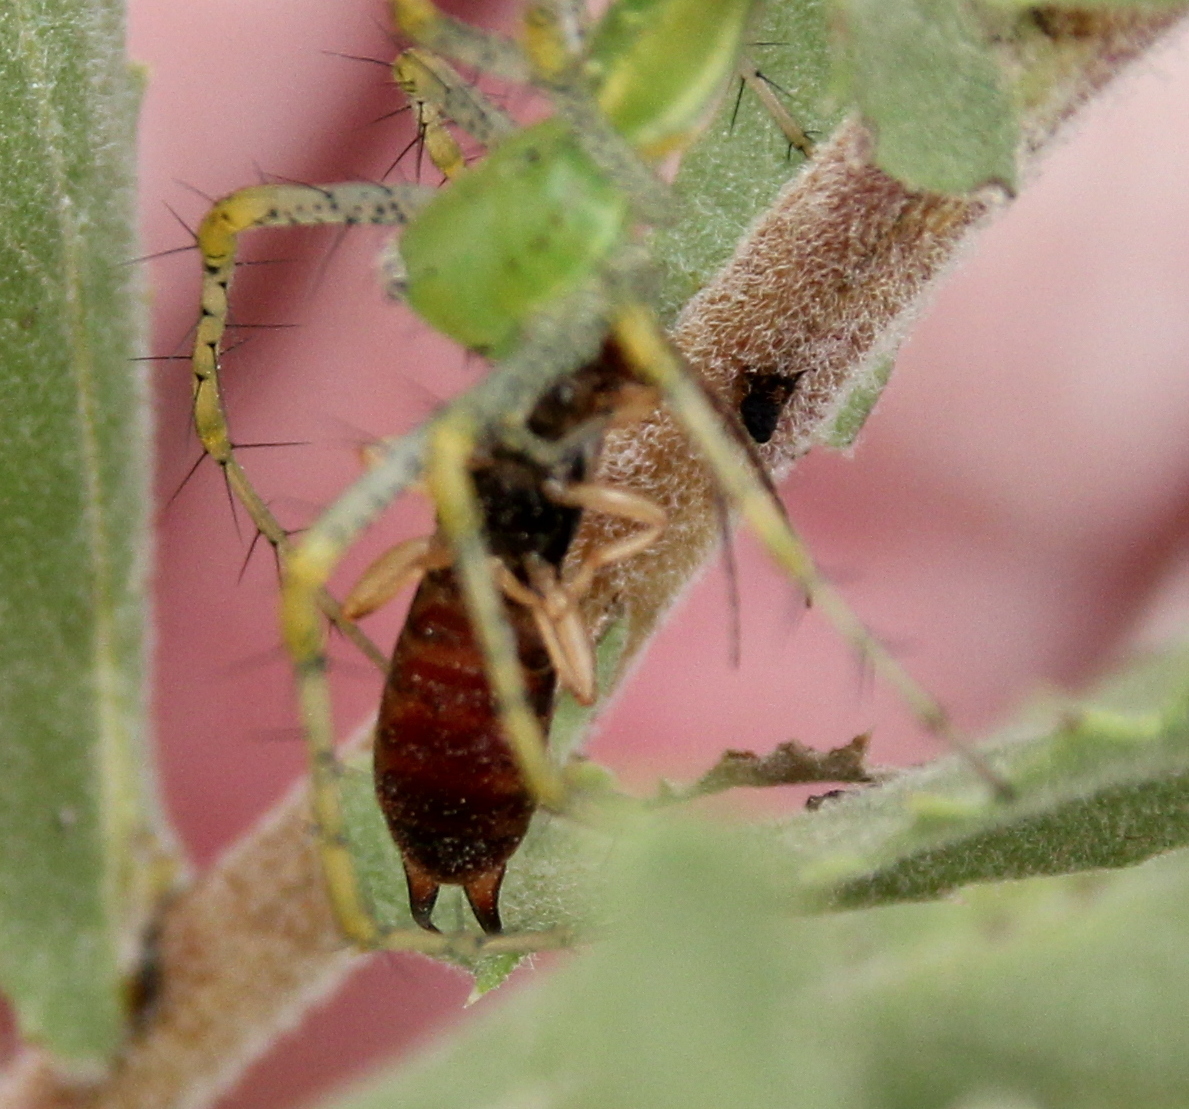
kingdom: Animalia
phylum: Arthropoda
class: Insecta
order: Dermaptera
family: Forficulidae
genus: Forficula
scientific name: Forficula
